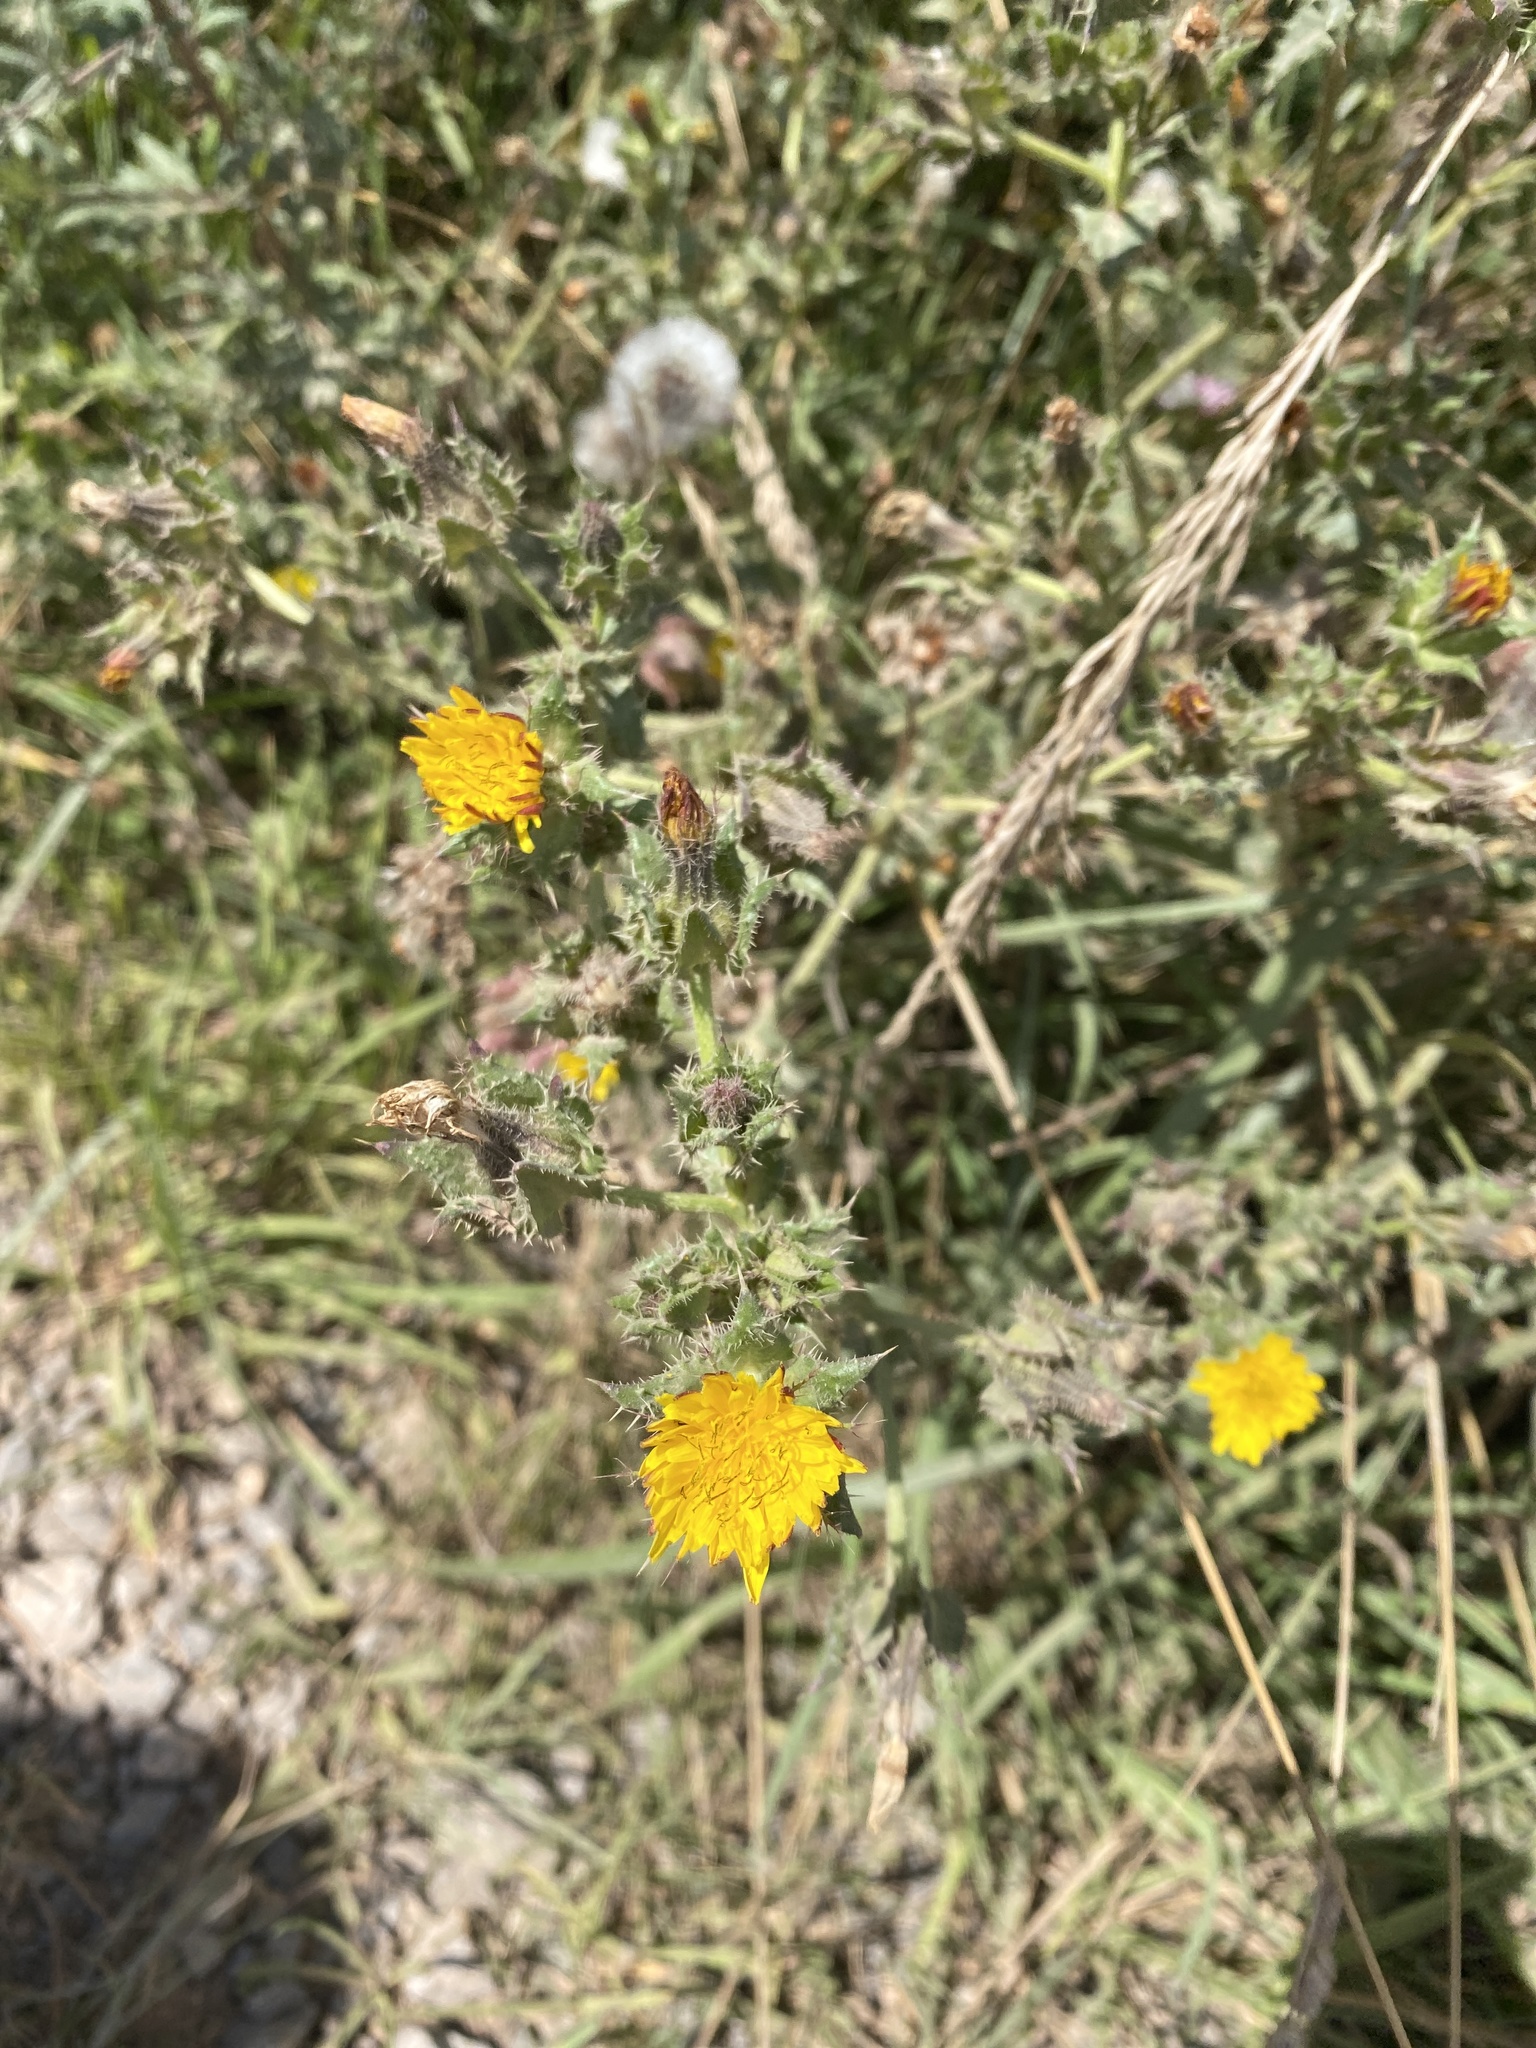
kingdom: Plantae
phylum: Tracheophyta
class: Magnoliopsida
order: Asterales
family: Asteraceae
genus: Helminthotheca
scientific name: Helminthotheca echioides
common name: Ox-tongue
